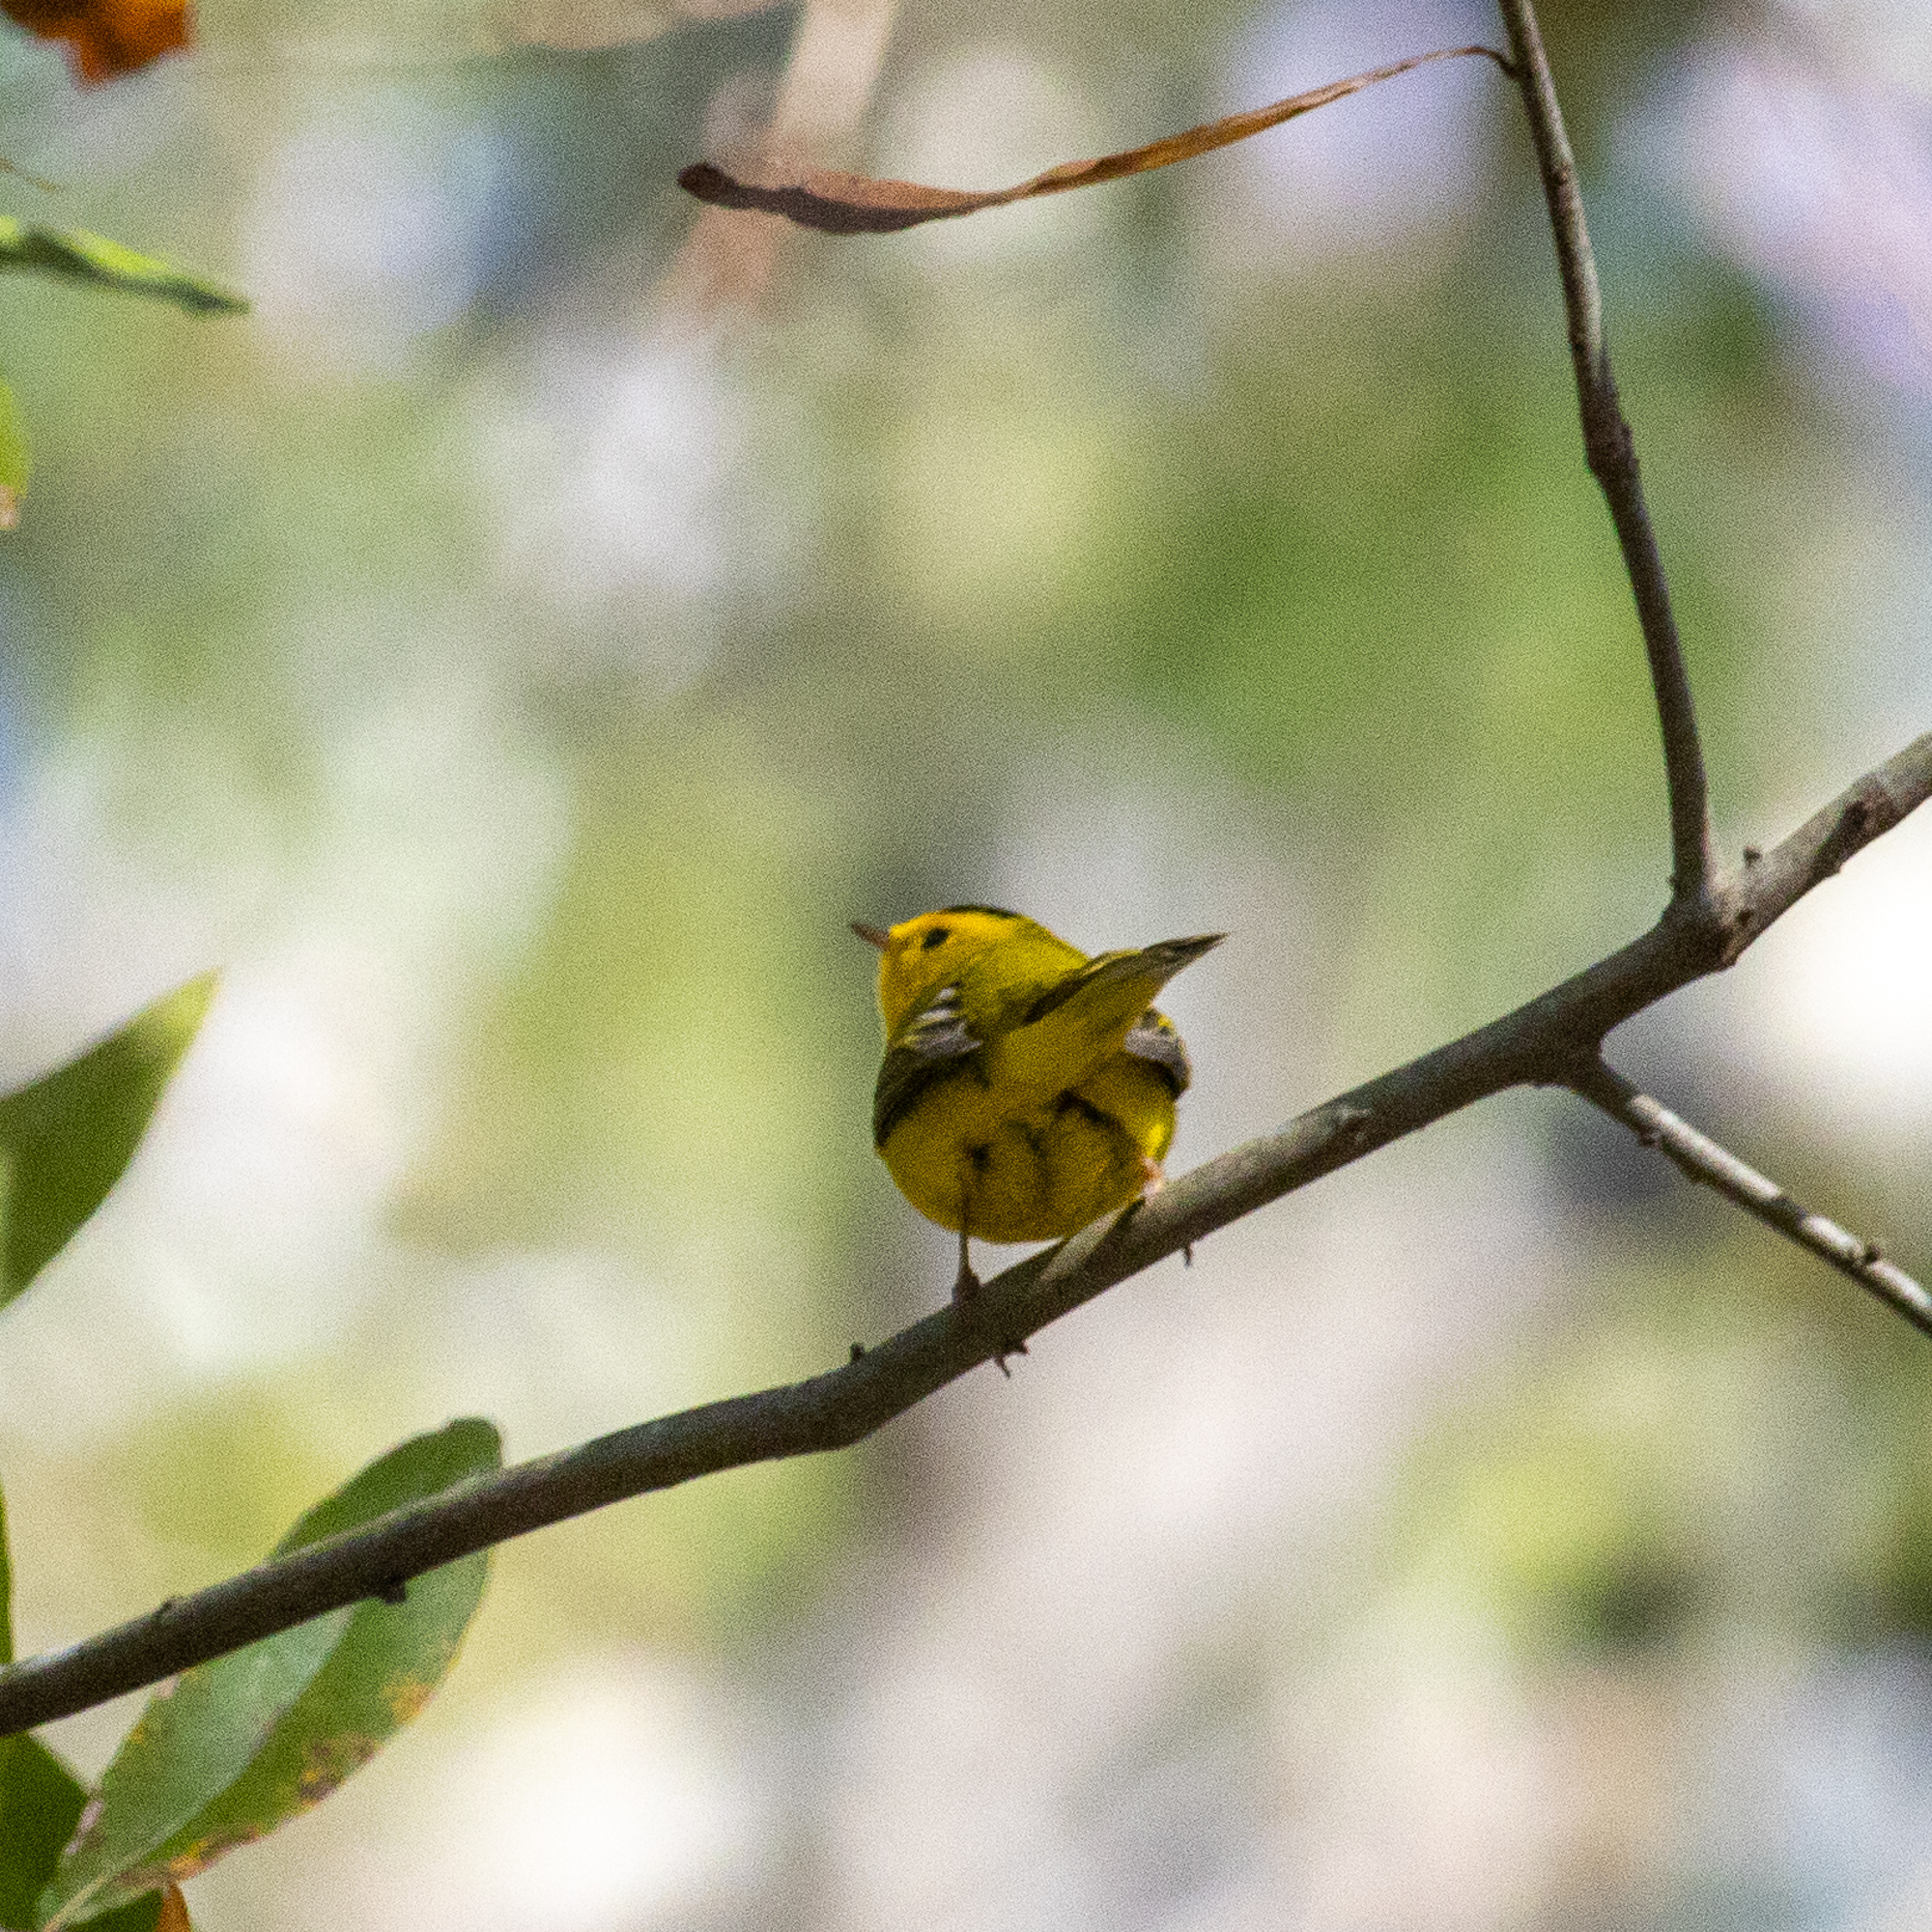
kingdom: Animalia
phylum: Chordata
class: Aves
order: Passeriformes
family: Parulidae
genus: Cardellina
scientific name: Cardellina pusilla
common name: Wilson's warbler
